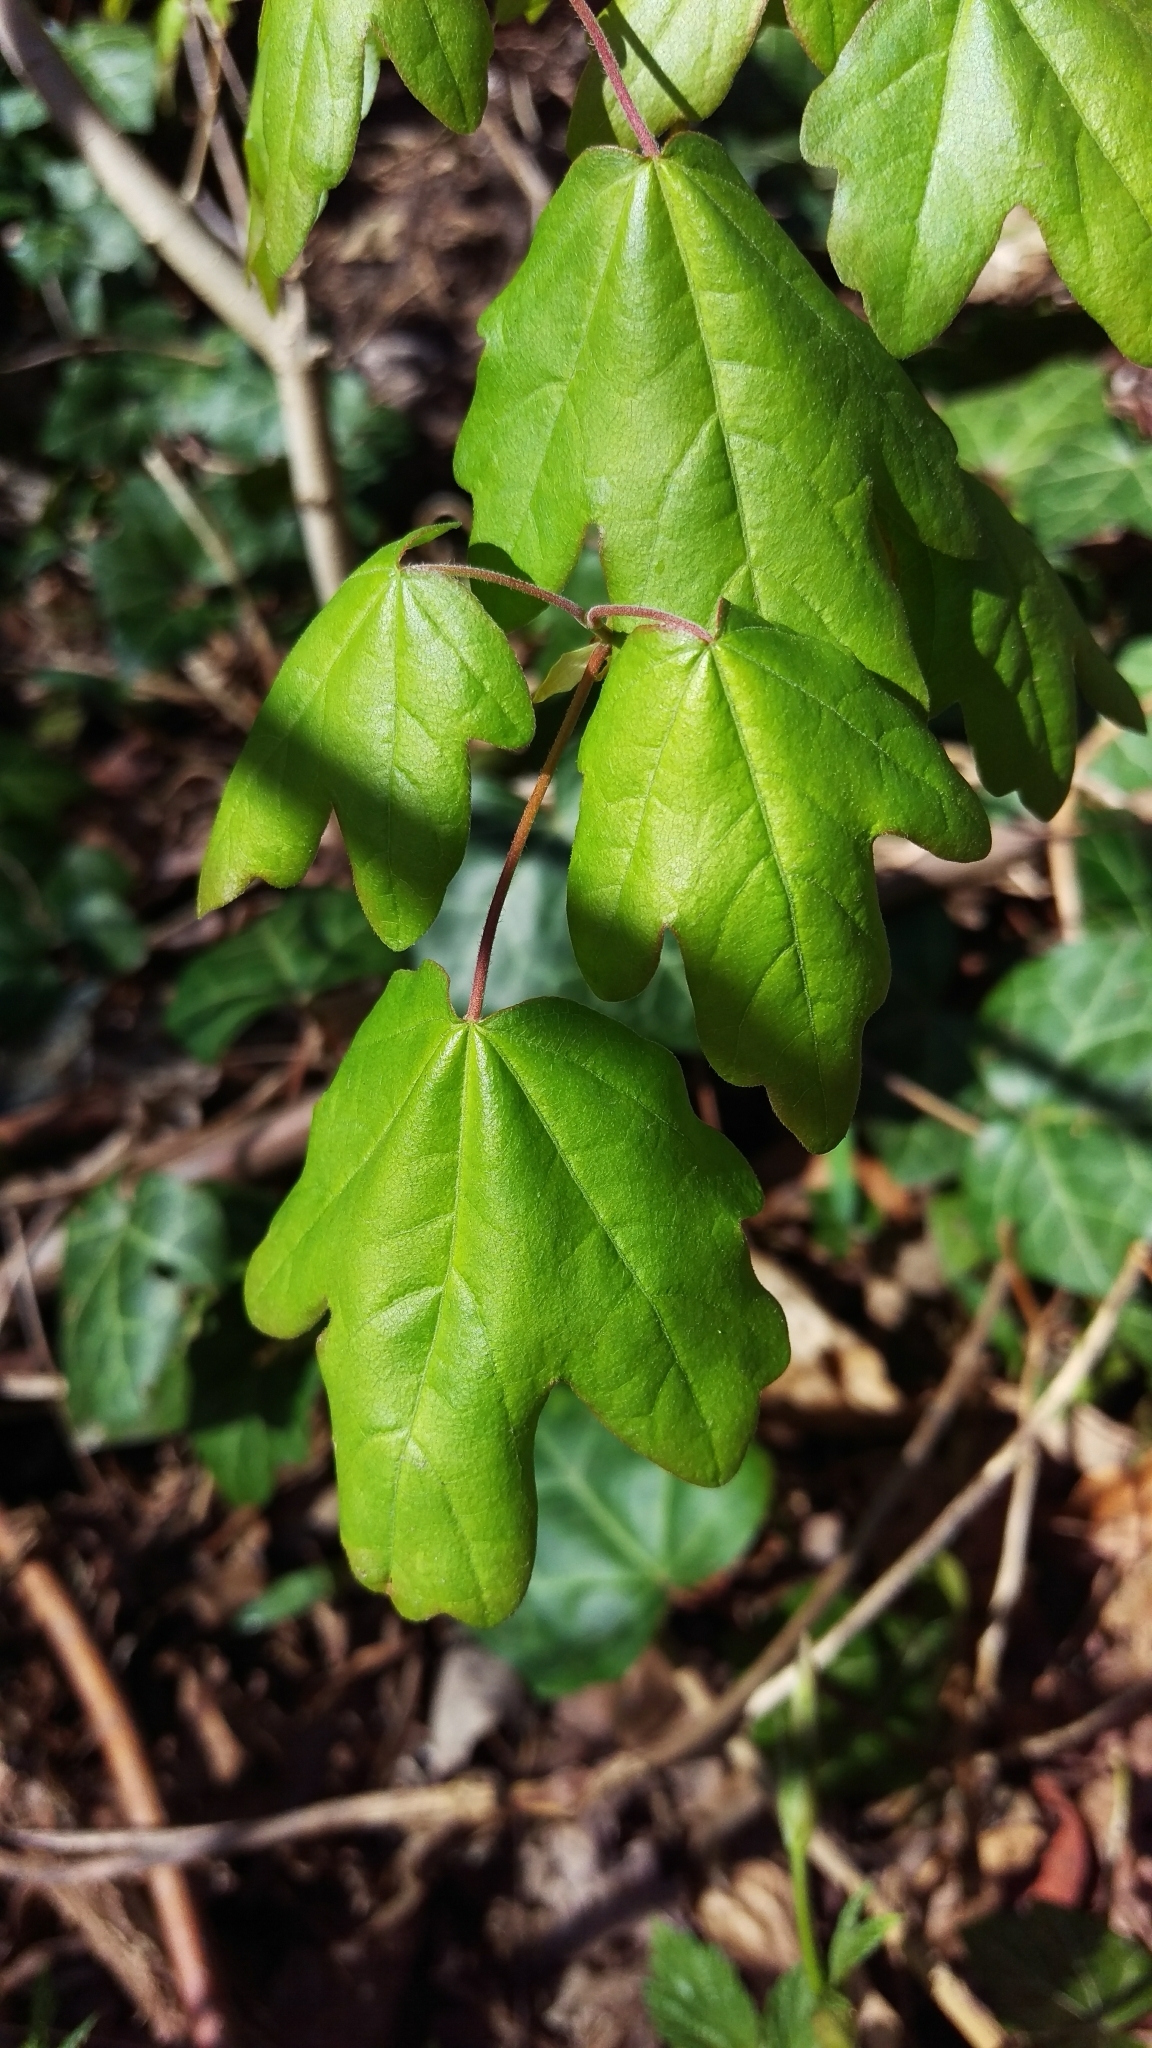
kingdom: Plantae
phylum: Tracheophyta
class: Magnoliopsida
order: Sapindales
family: Sapindaceae
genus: Acer
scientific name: Acer campestre
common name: Field maple
